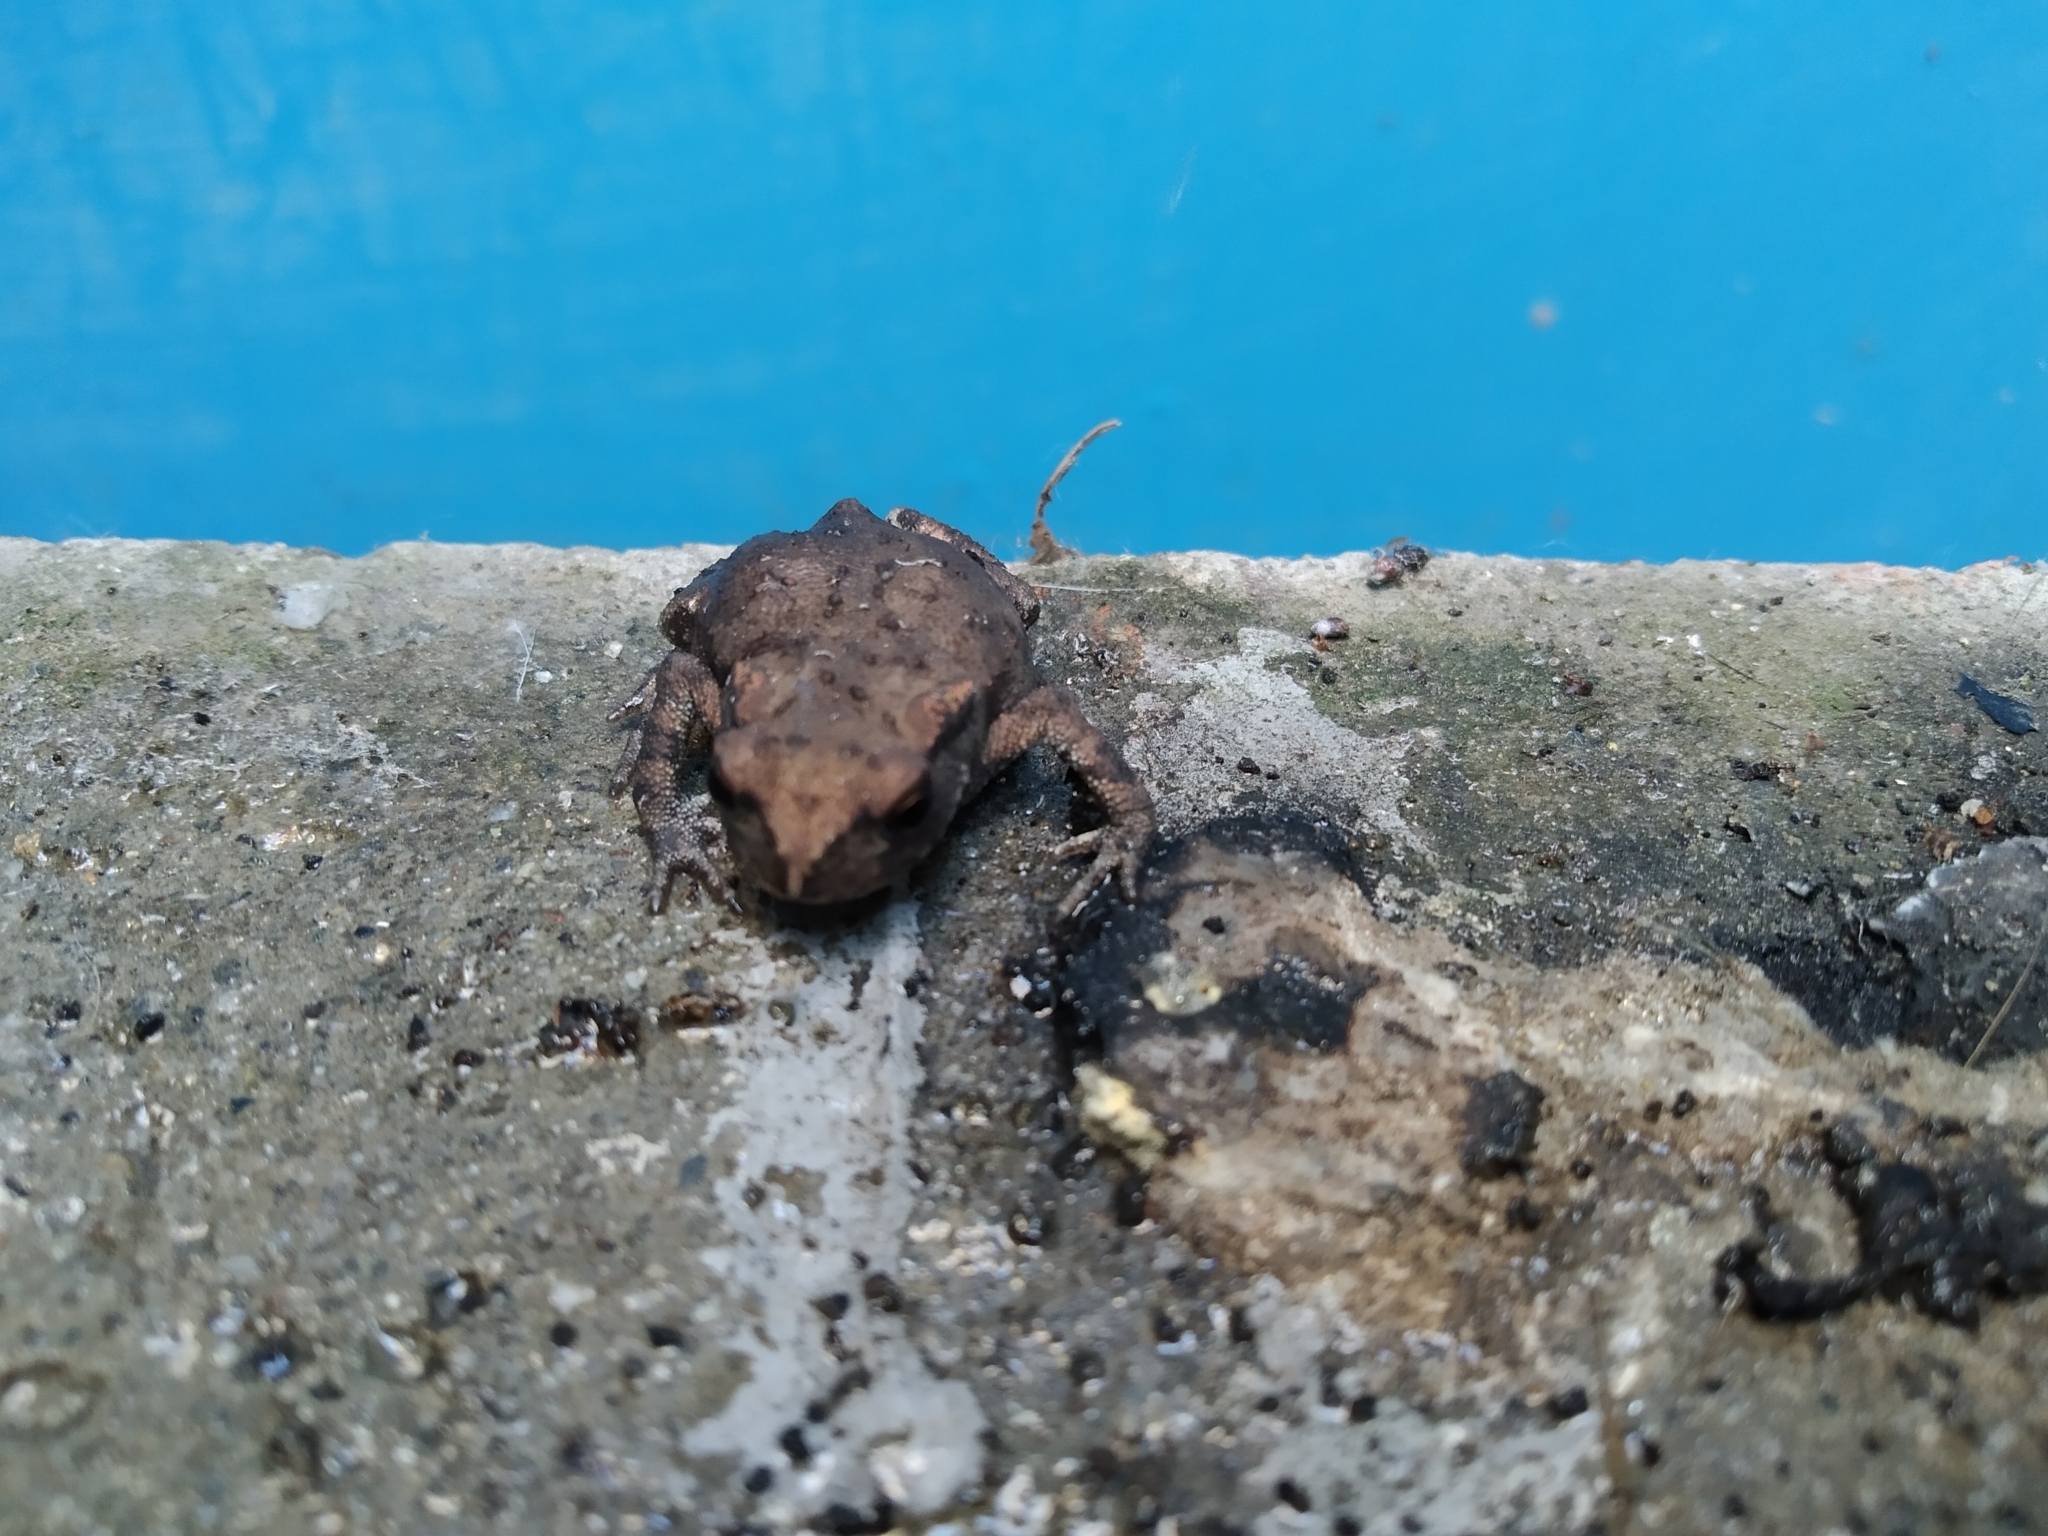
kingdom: Animalia
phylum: Chordata
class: Amphibia
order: Anura
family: Bufonidae
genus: Bufo
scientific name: Bufo bufo
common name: Common toad
